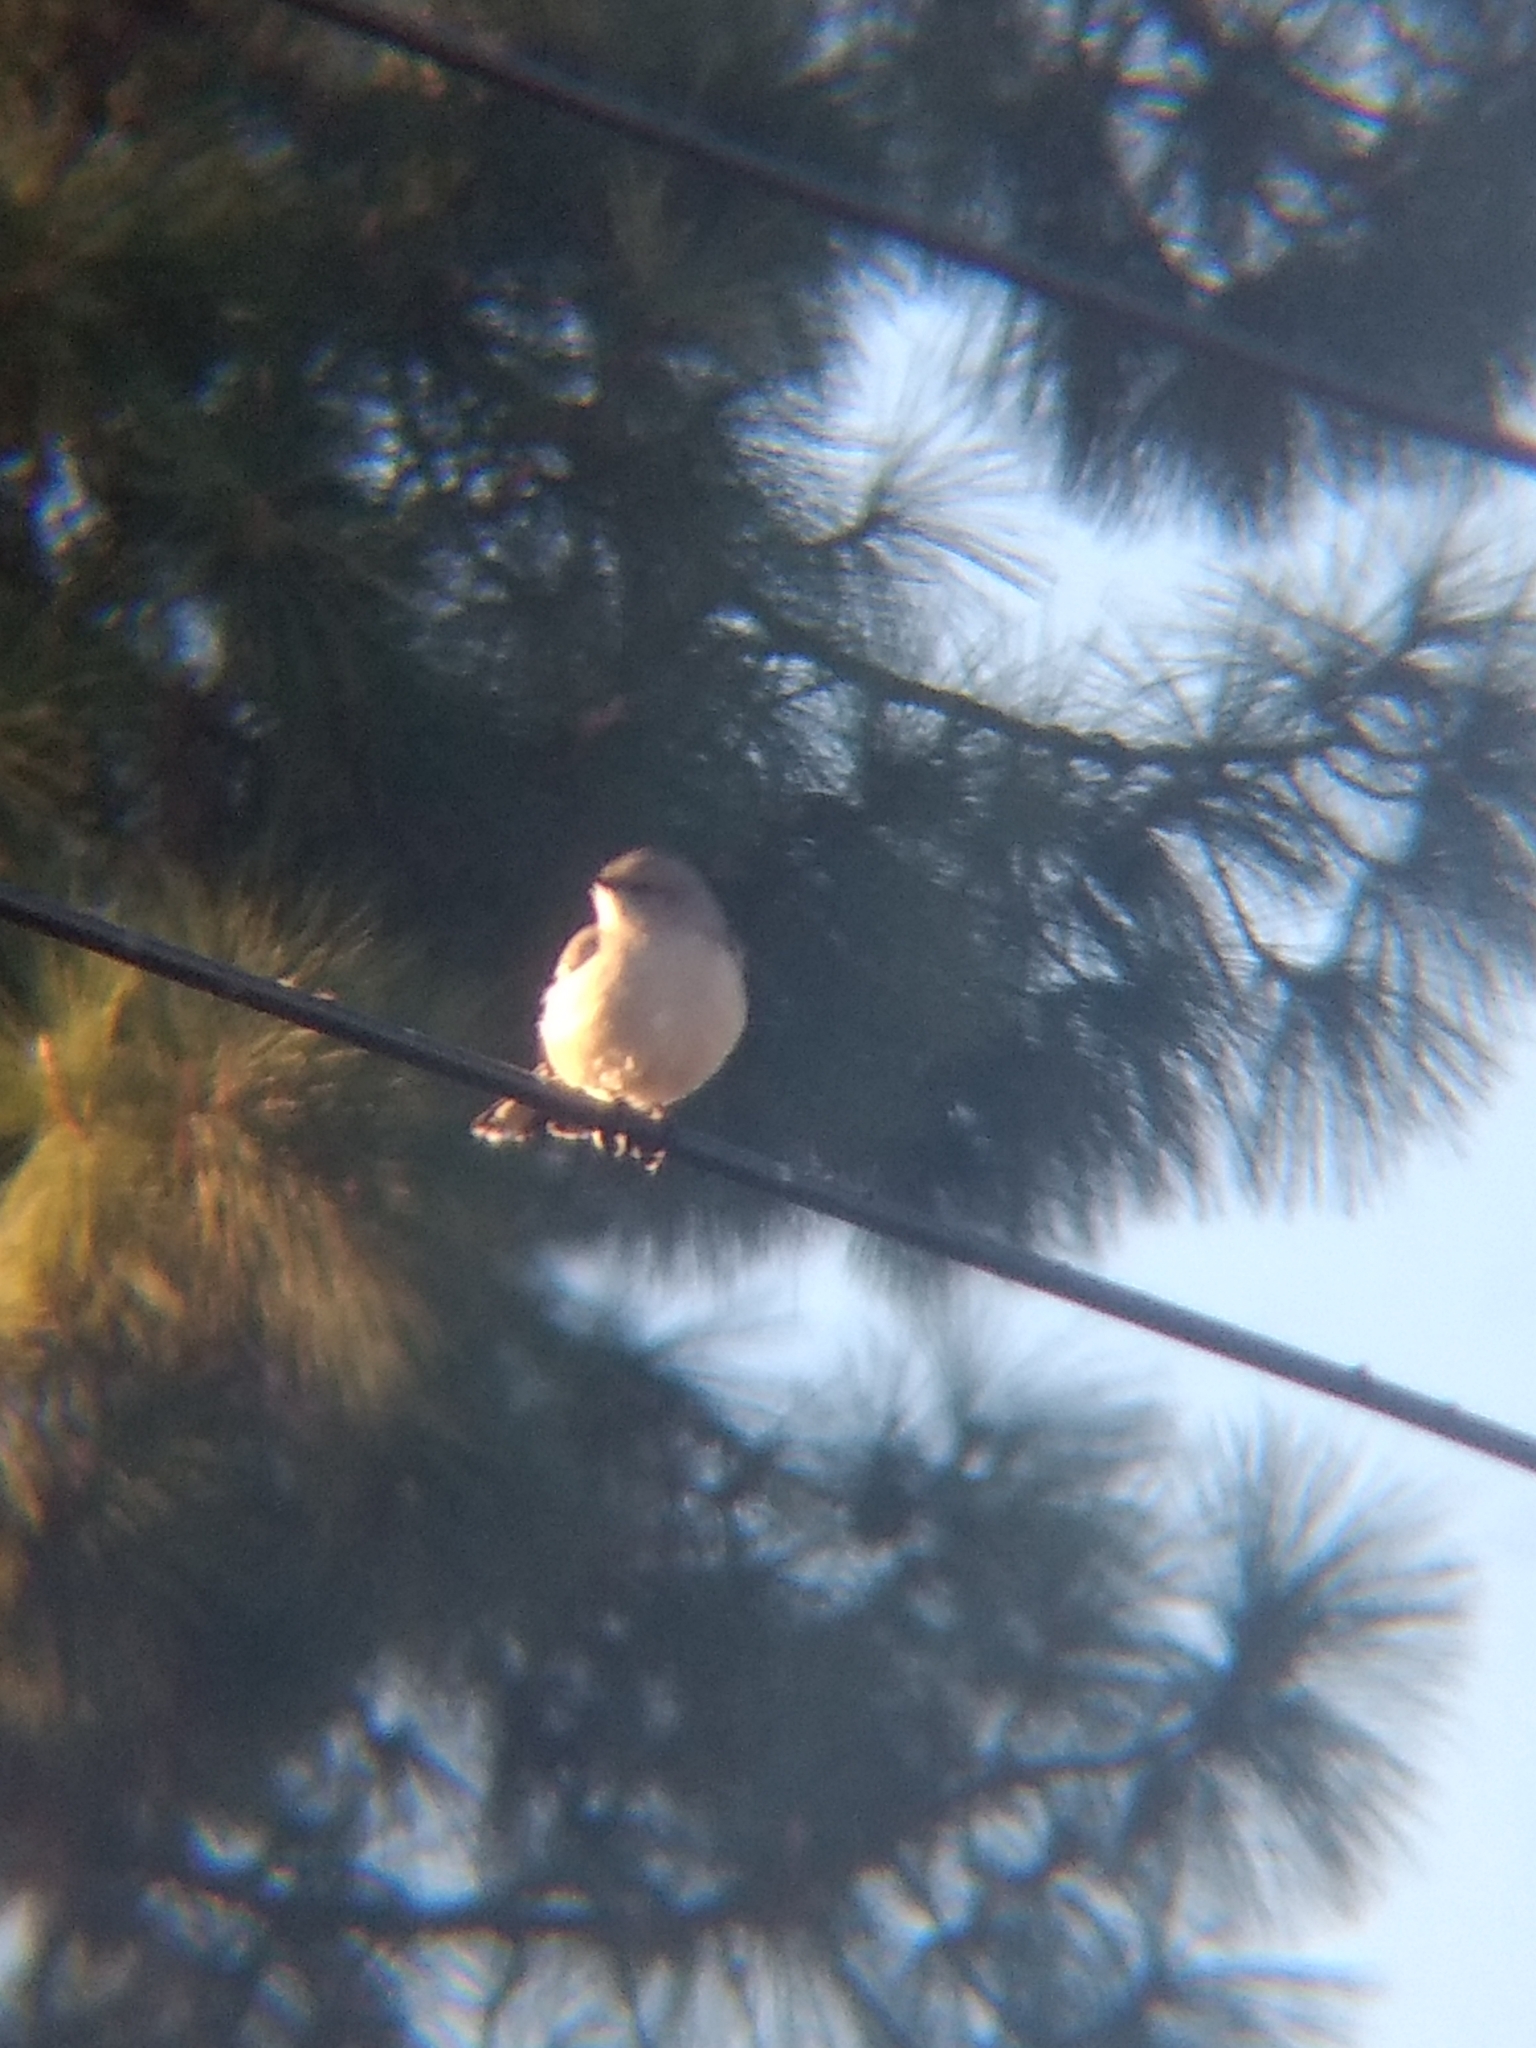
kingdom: Animalia
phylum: Chordata
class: Aves
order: Passeriformes
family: Mimidae
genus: Mimus
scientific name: Mimus polyglottos
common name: Northern mockingbird
